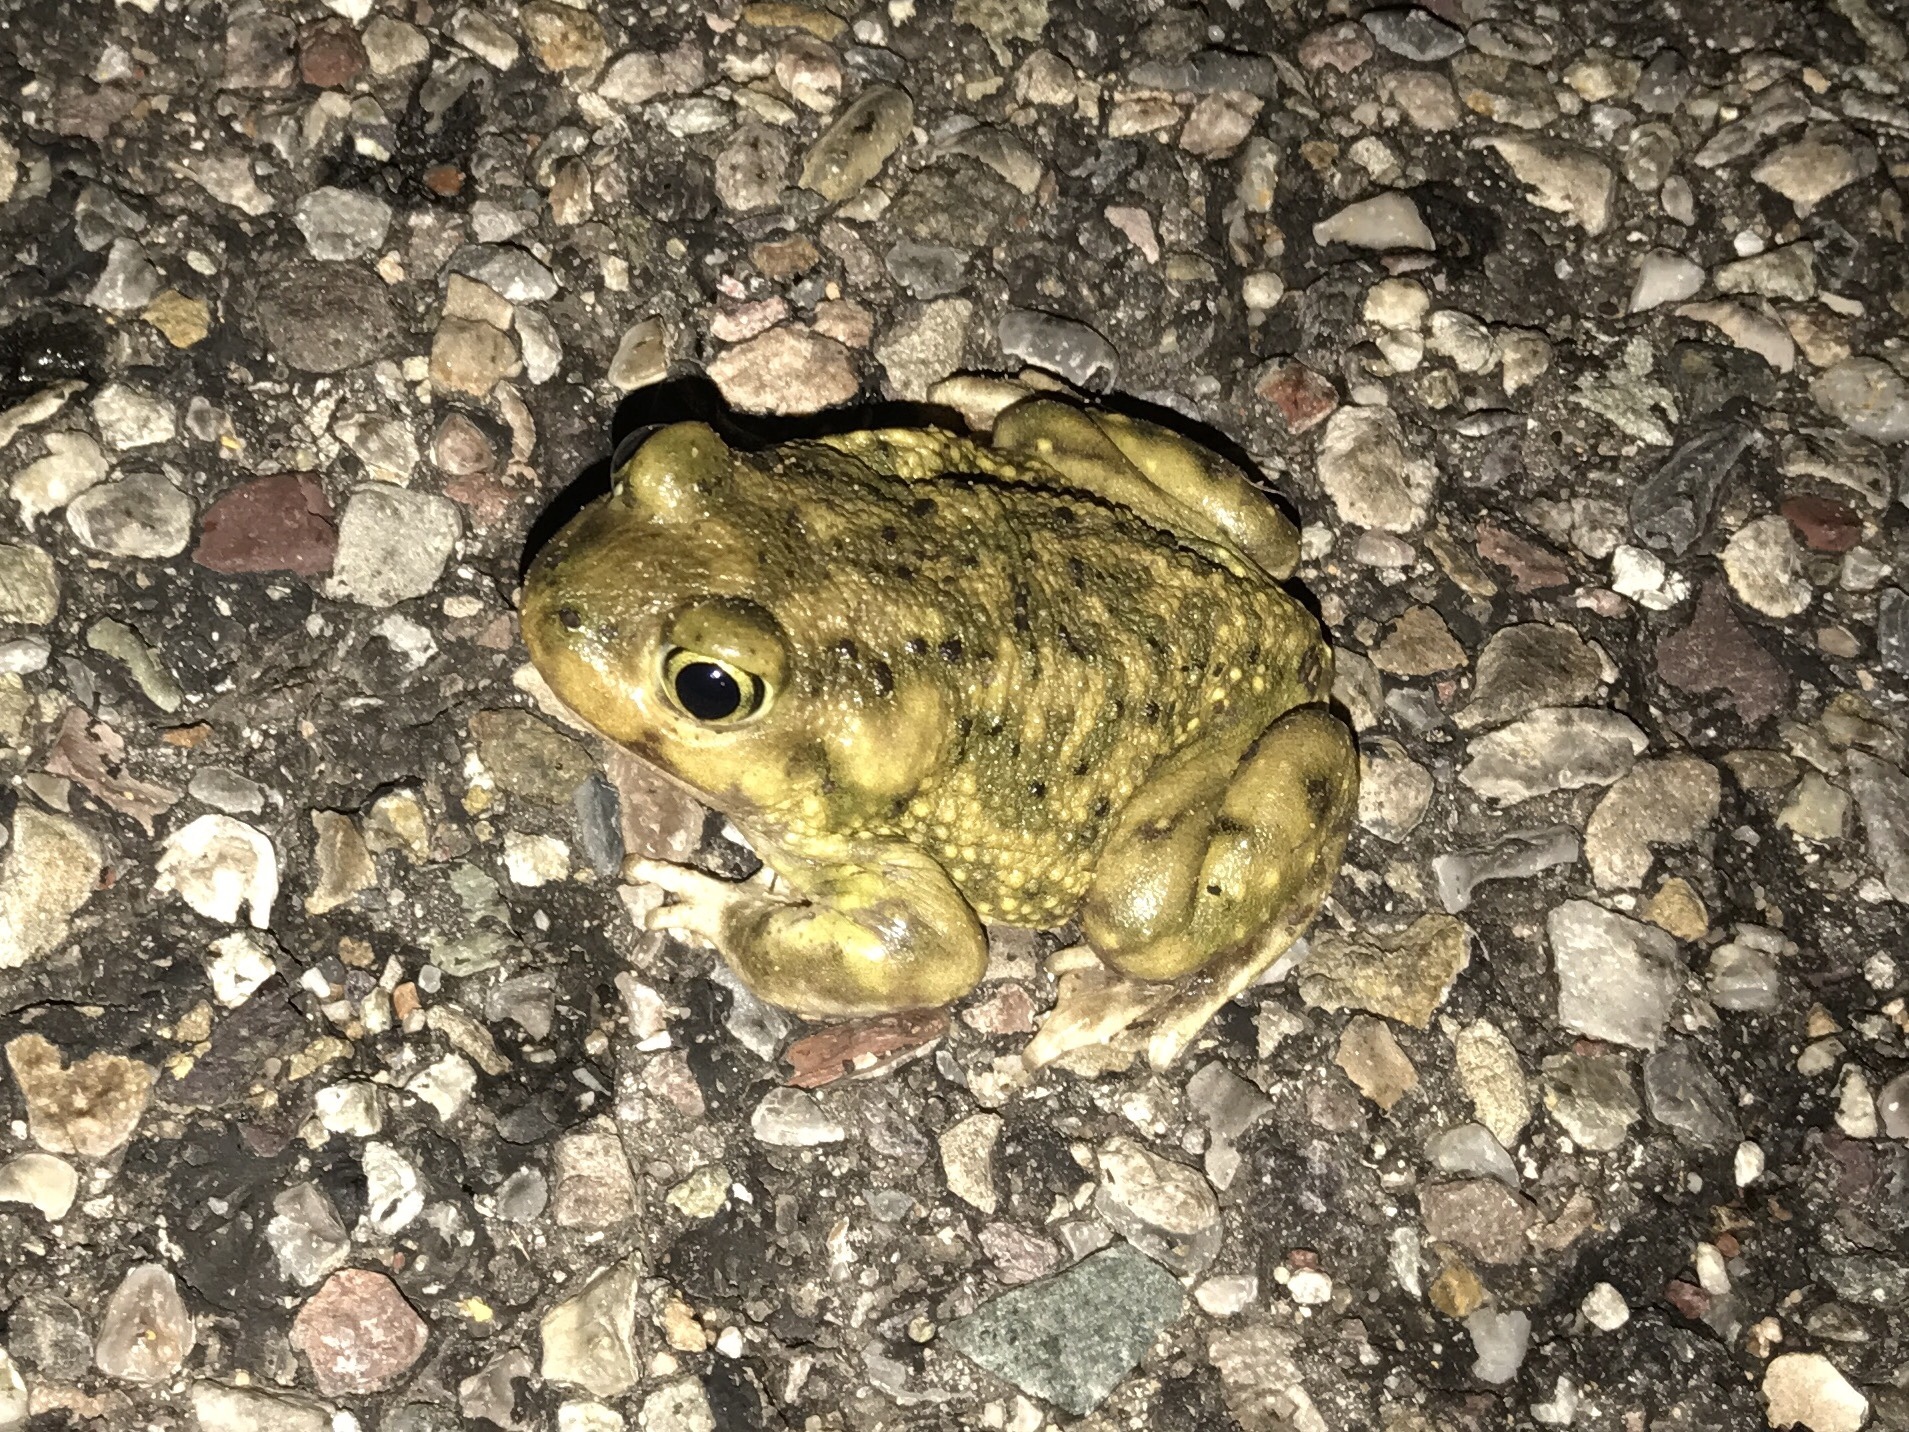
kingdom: Animalia
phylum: Chordata
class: Amphibia
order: Anura
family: Scaphiopodidae
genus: Scaphiopus
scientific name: Scaphiopus couchii
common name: Couch's spadefoot toad
